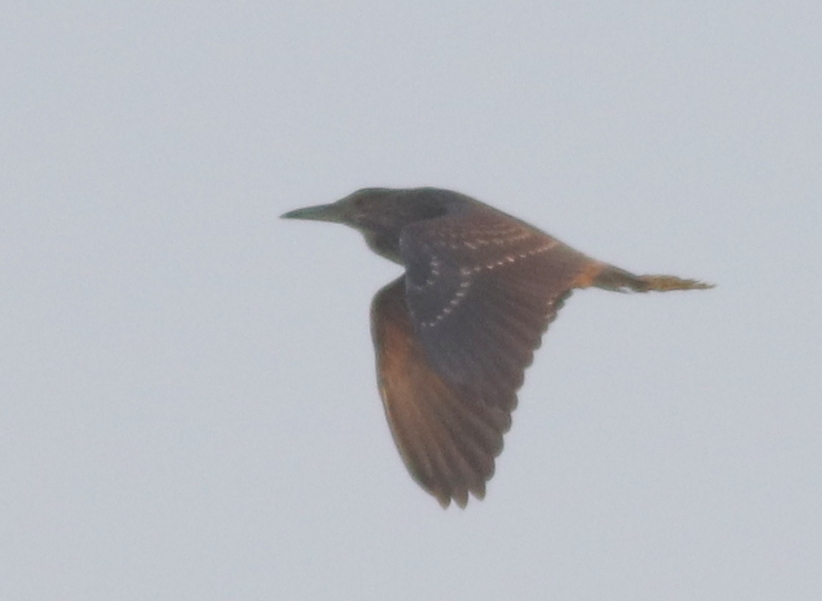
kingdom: Animalia
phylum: Chordata
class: Aves
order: Pelecaniformes
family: Ardeidae
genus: Nycticorax
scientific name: Nycticorax nycticorax
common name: Black-crowned night heron
